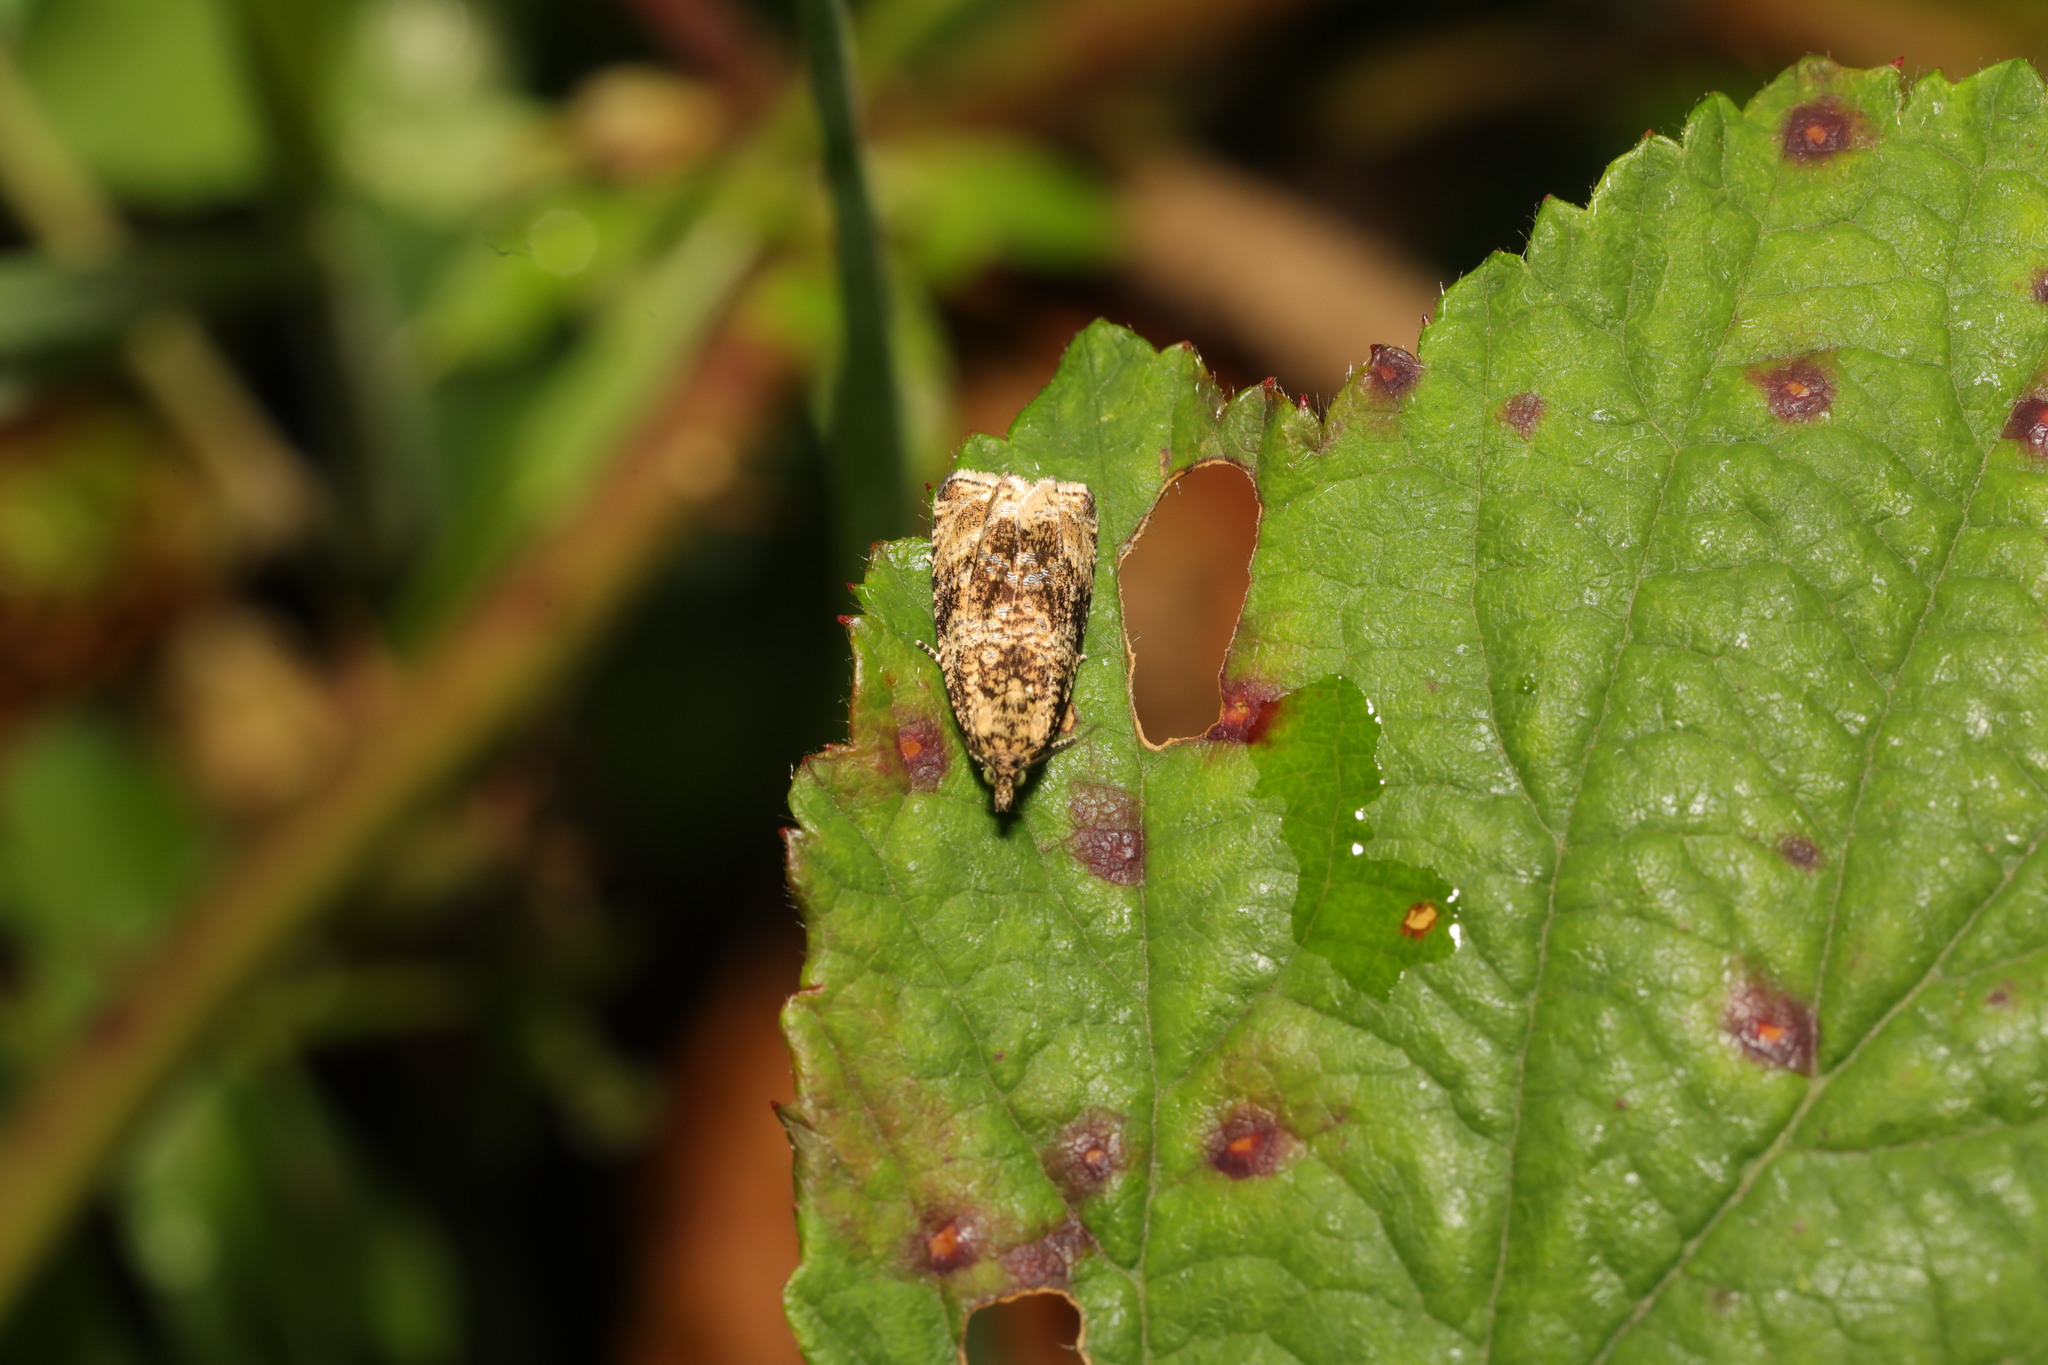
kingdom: Animalia
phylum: Arthropoda
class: Insecta
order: Lepidoptera
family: Tortricidae
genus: Syricoris
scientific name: Syricoris lacunana
